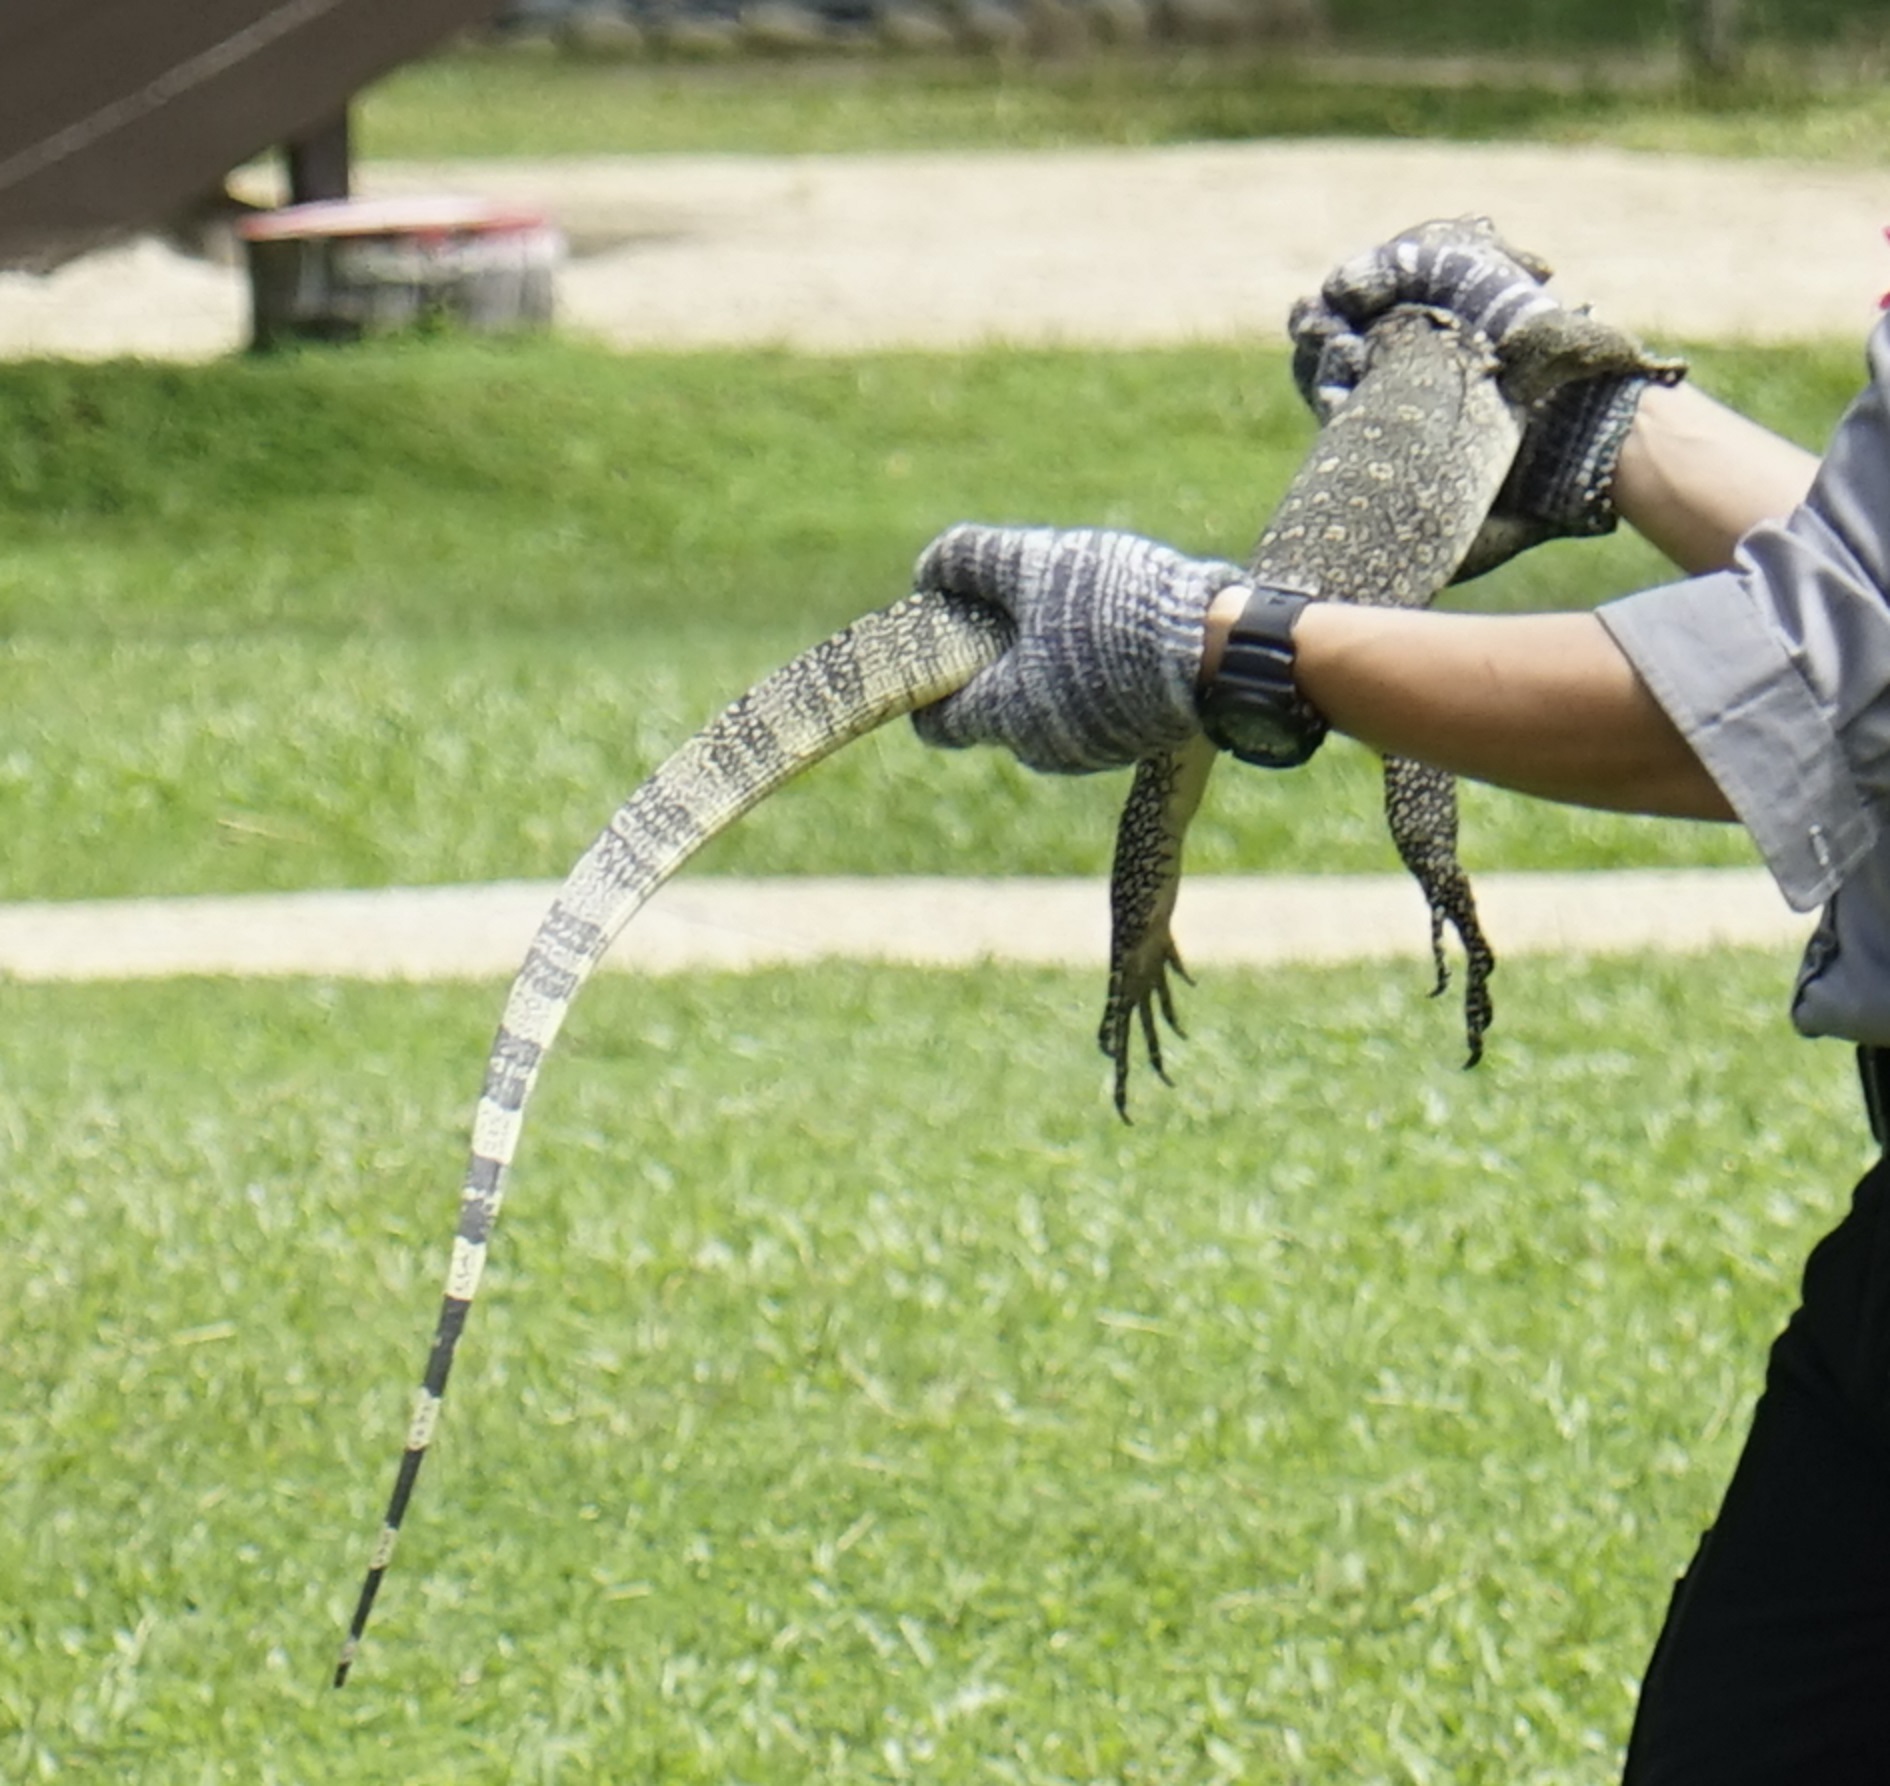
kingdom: Animalia
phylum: Chordata
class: Squamata
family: Varanidae
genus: Varanus
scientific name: Varanus salvator
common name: Common water monitor
